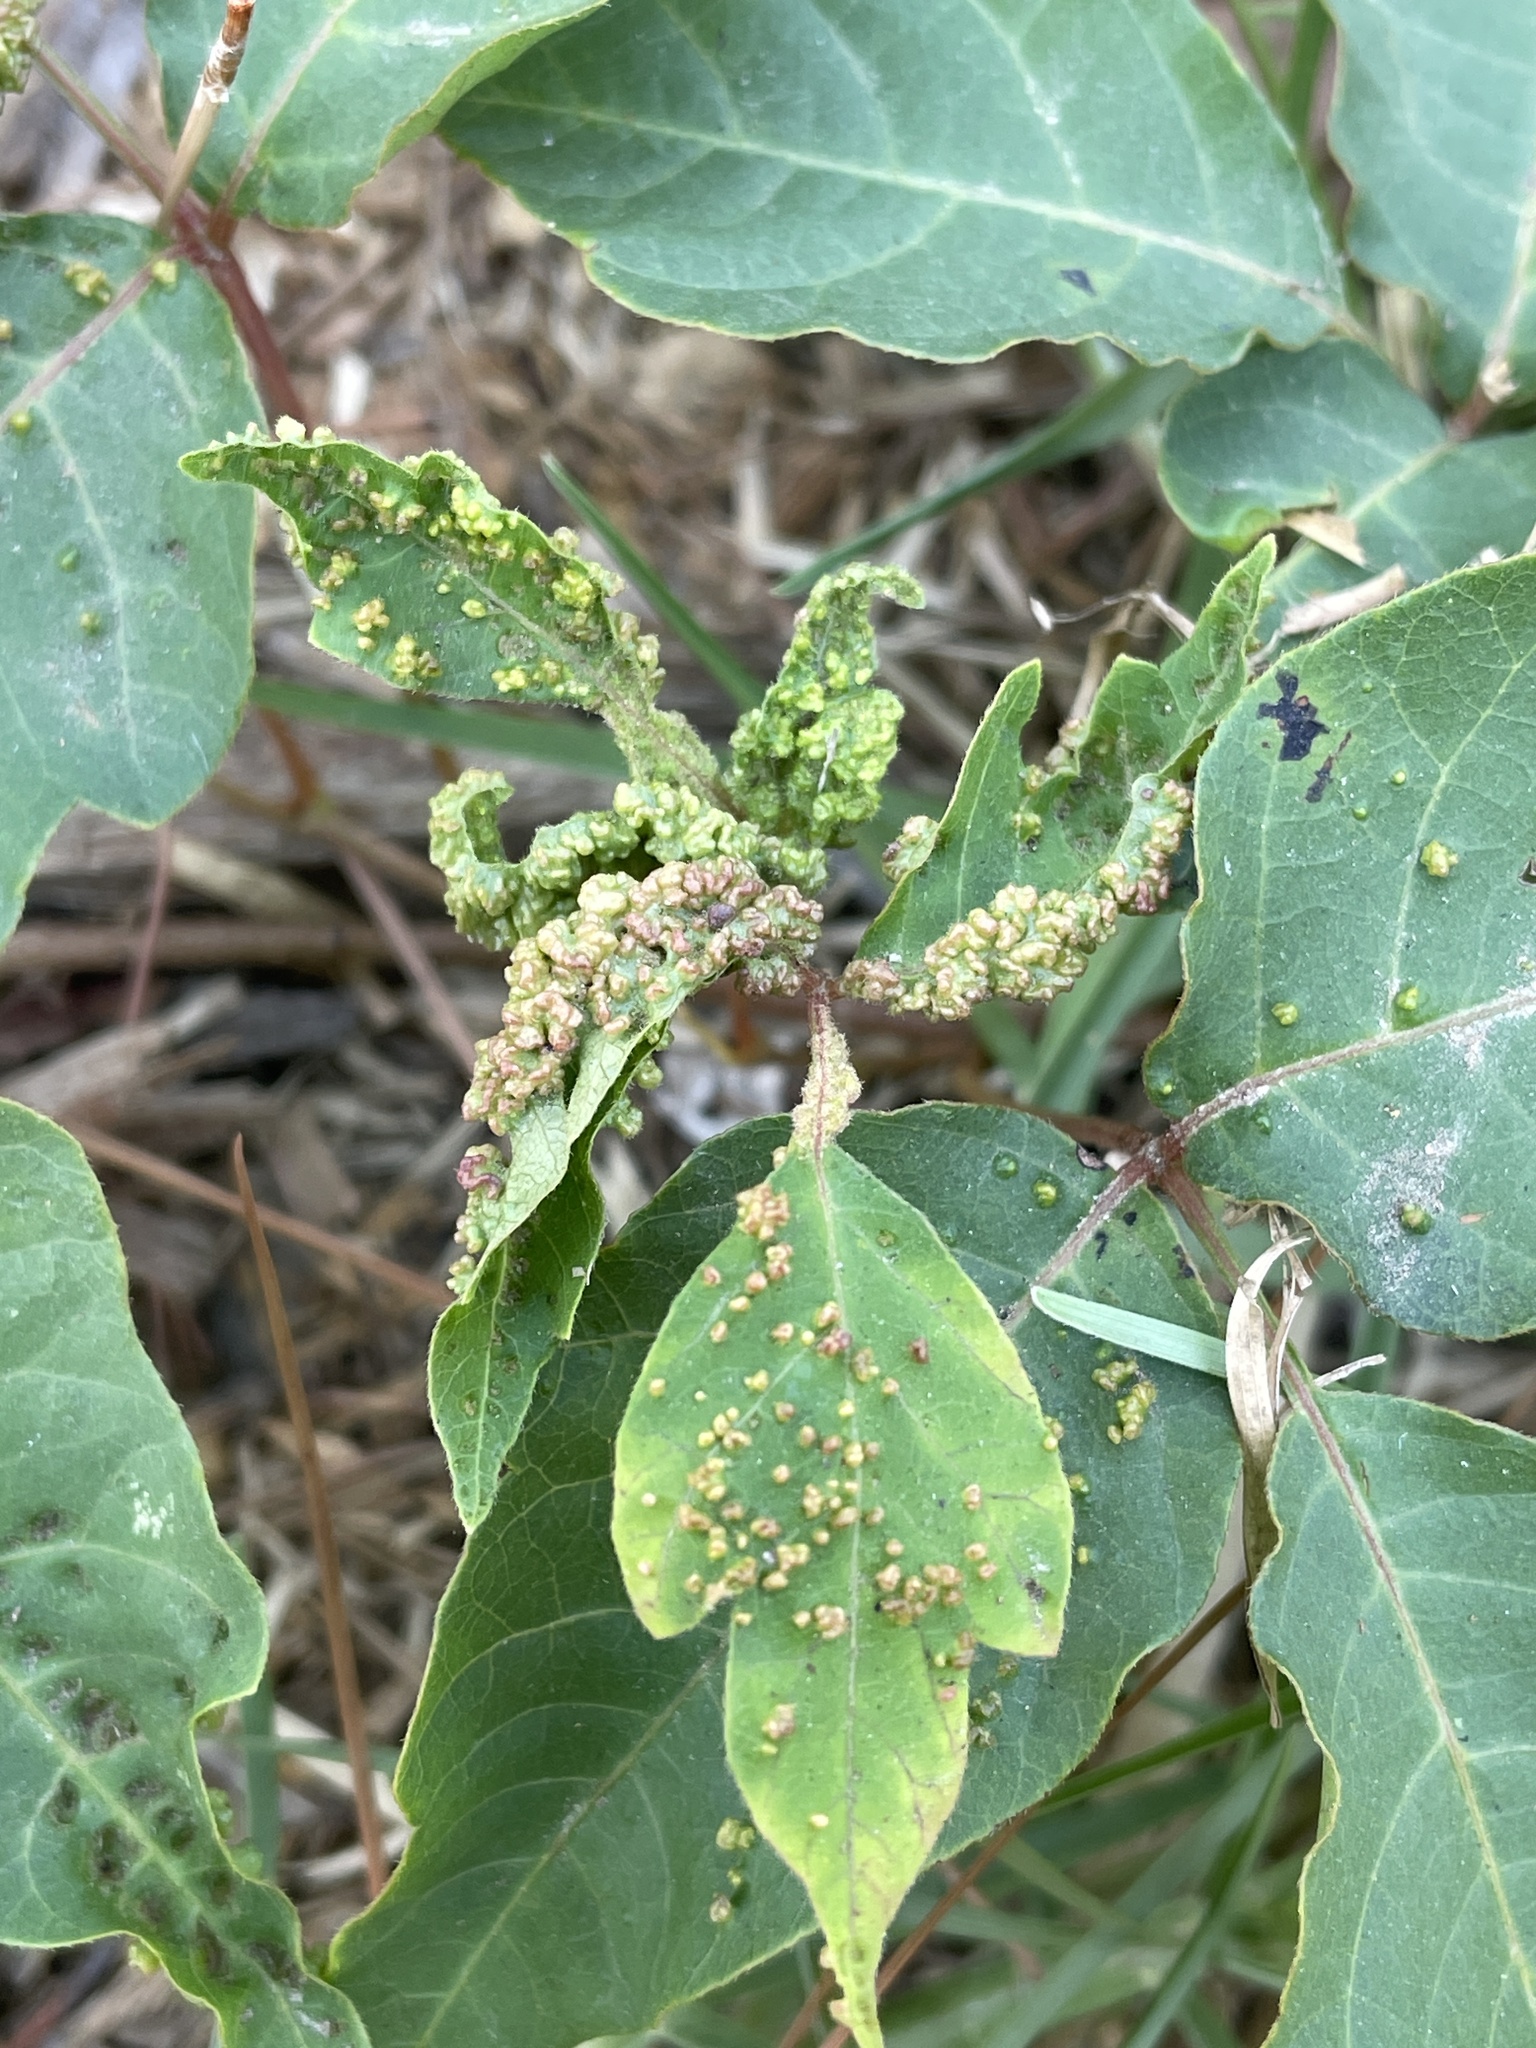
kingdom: Animalia
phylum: Arthropoda
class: Arachnida
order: Trombidiformes
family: Eriophyidae
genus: Aculops
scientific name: Aculops
